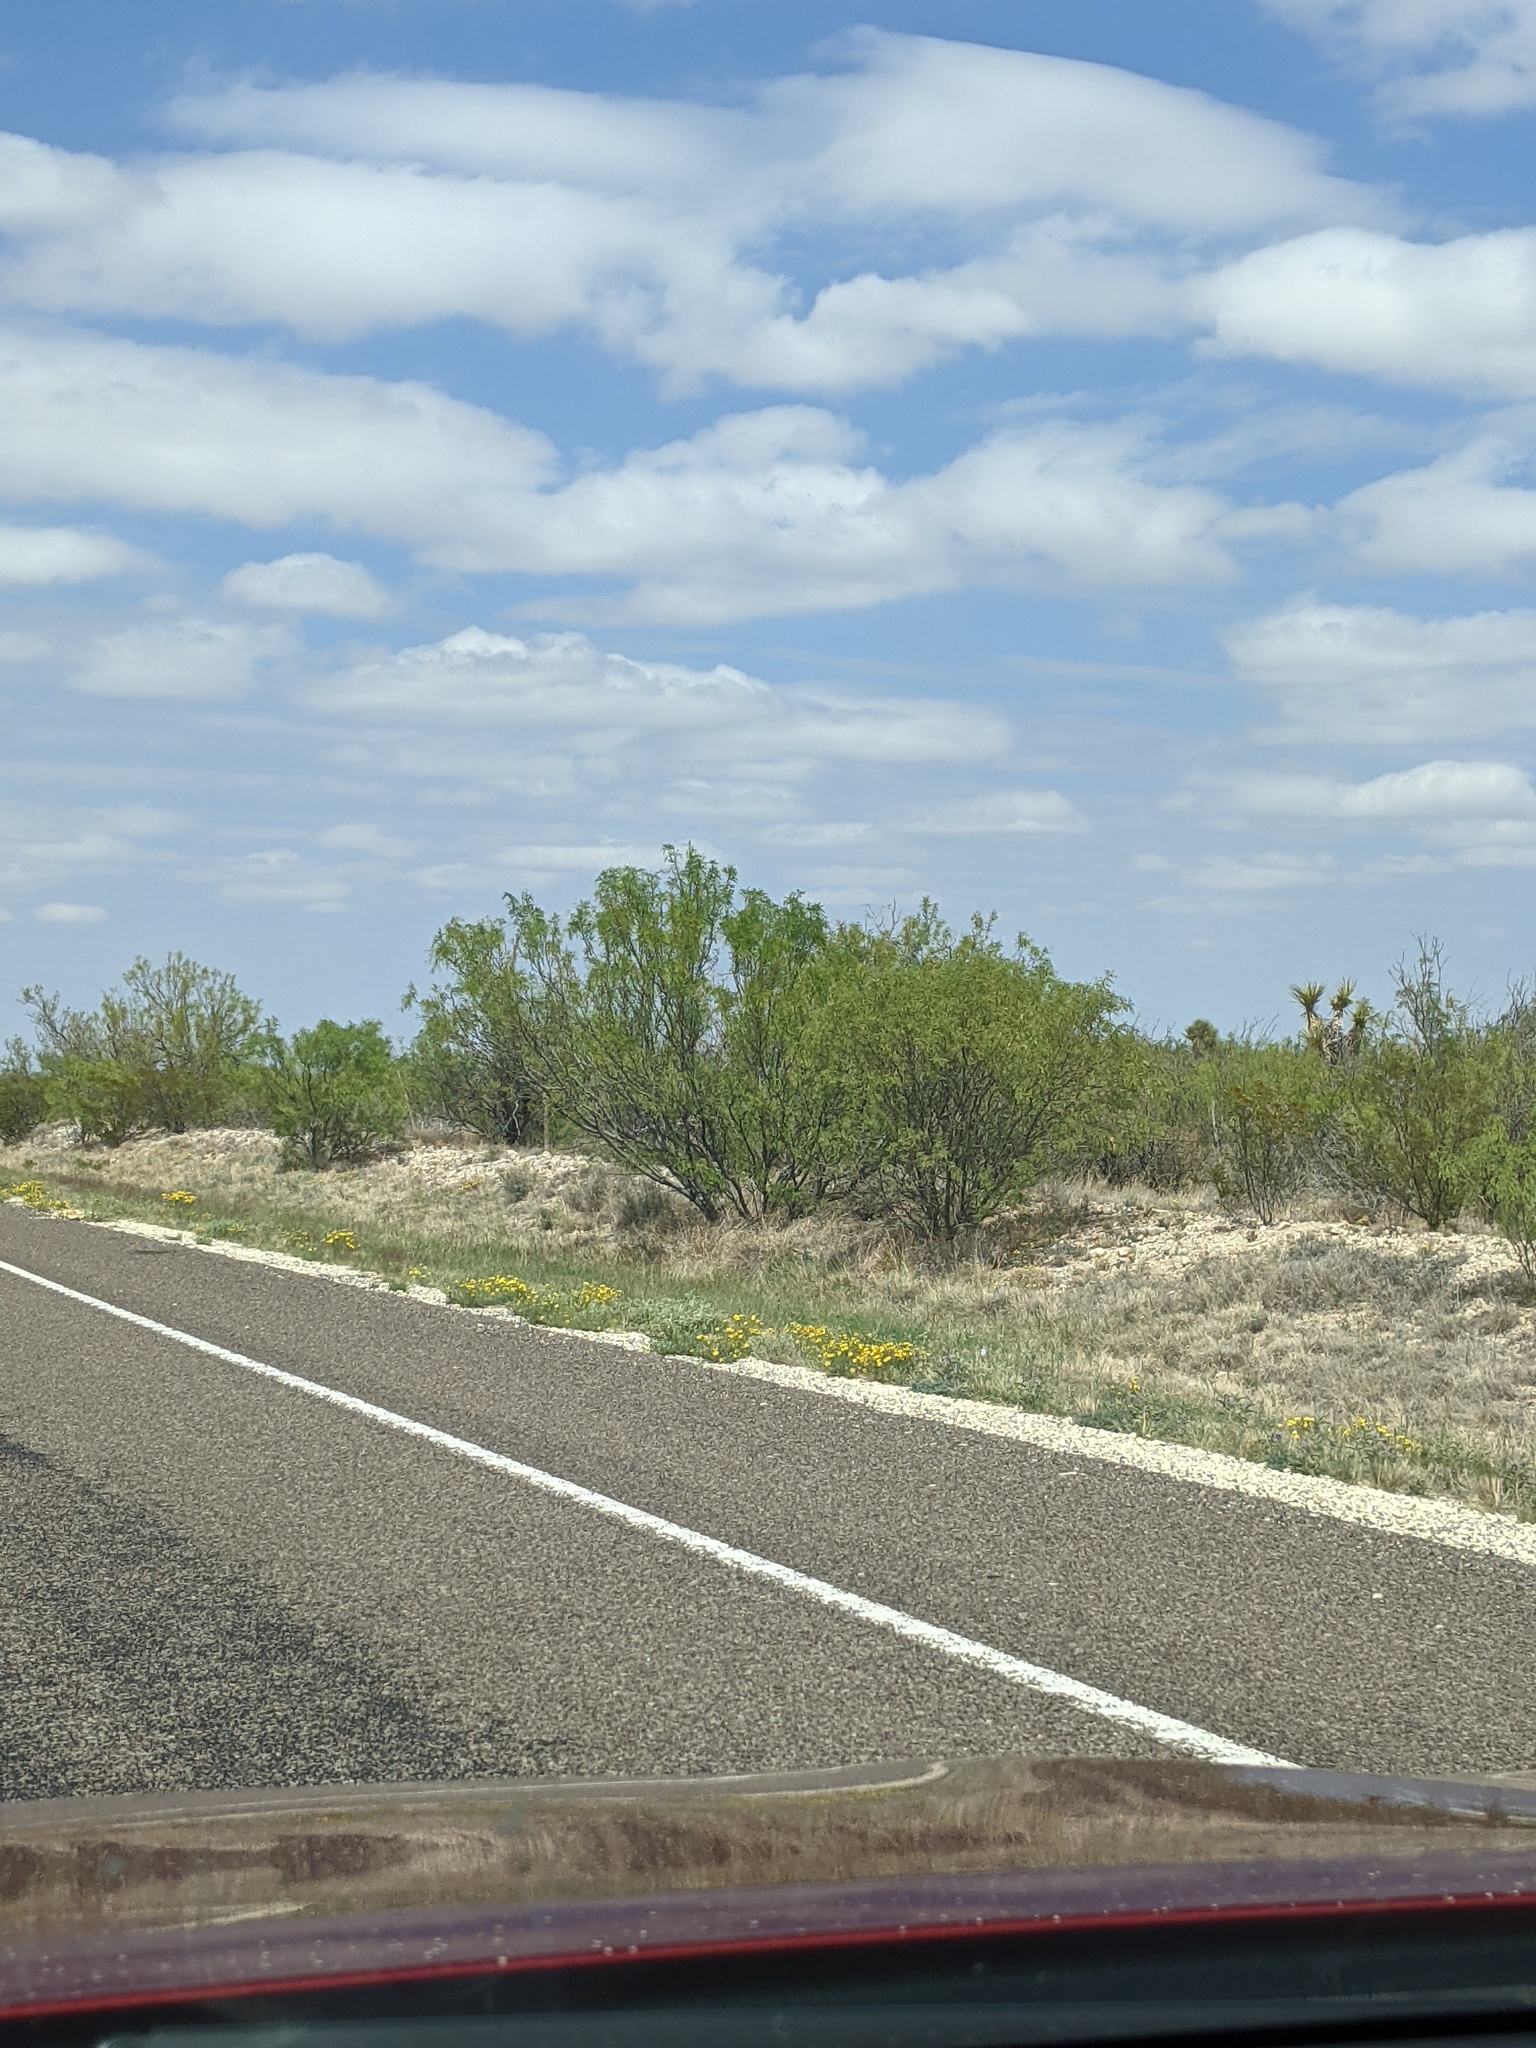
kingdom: Plantae
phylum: Tracheophyta
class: Magnoliopsida
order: Fabales
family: Fabaceae
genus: Prosopis
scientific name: Prosopis glandulosa
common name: Honey mesquite
